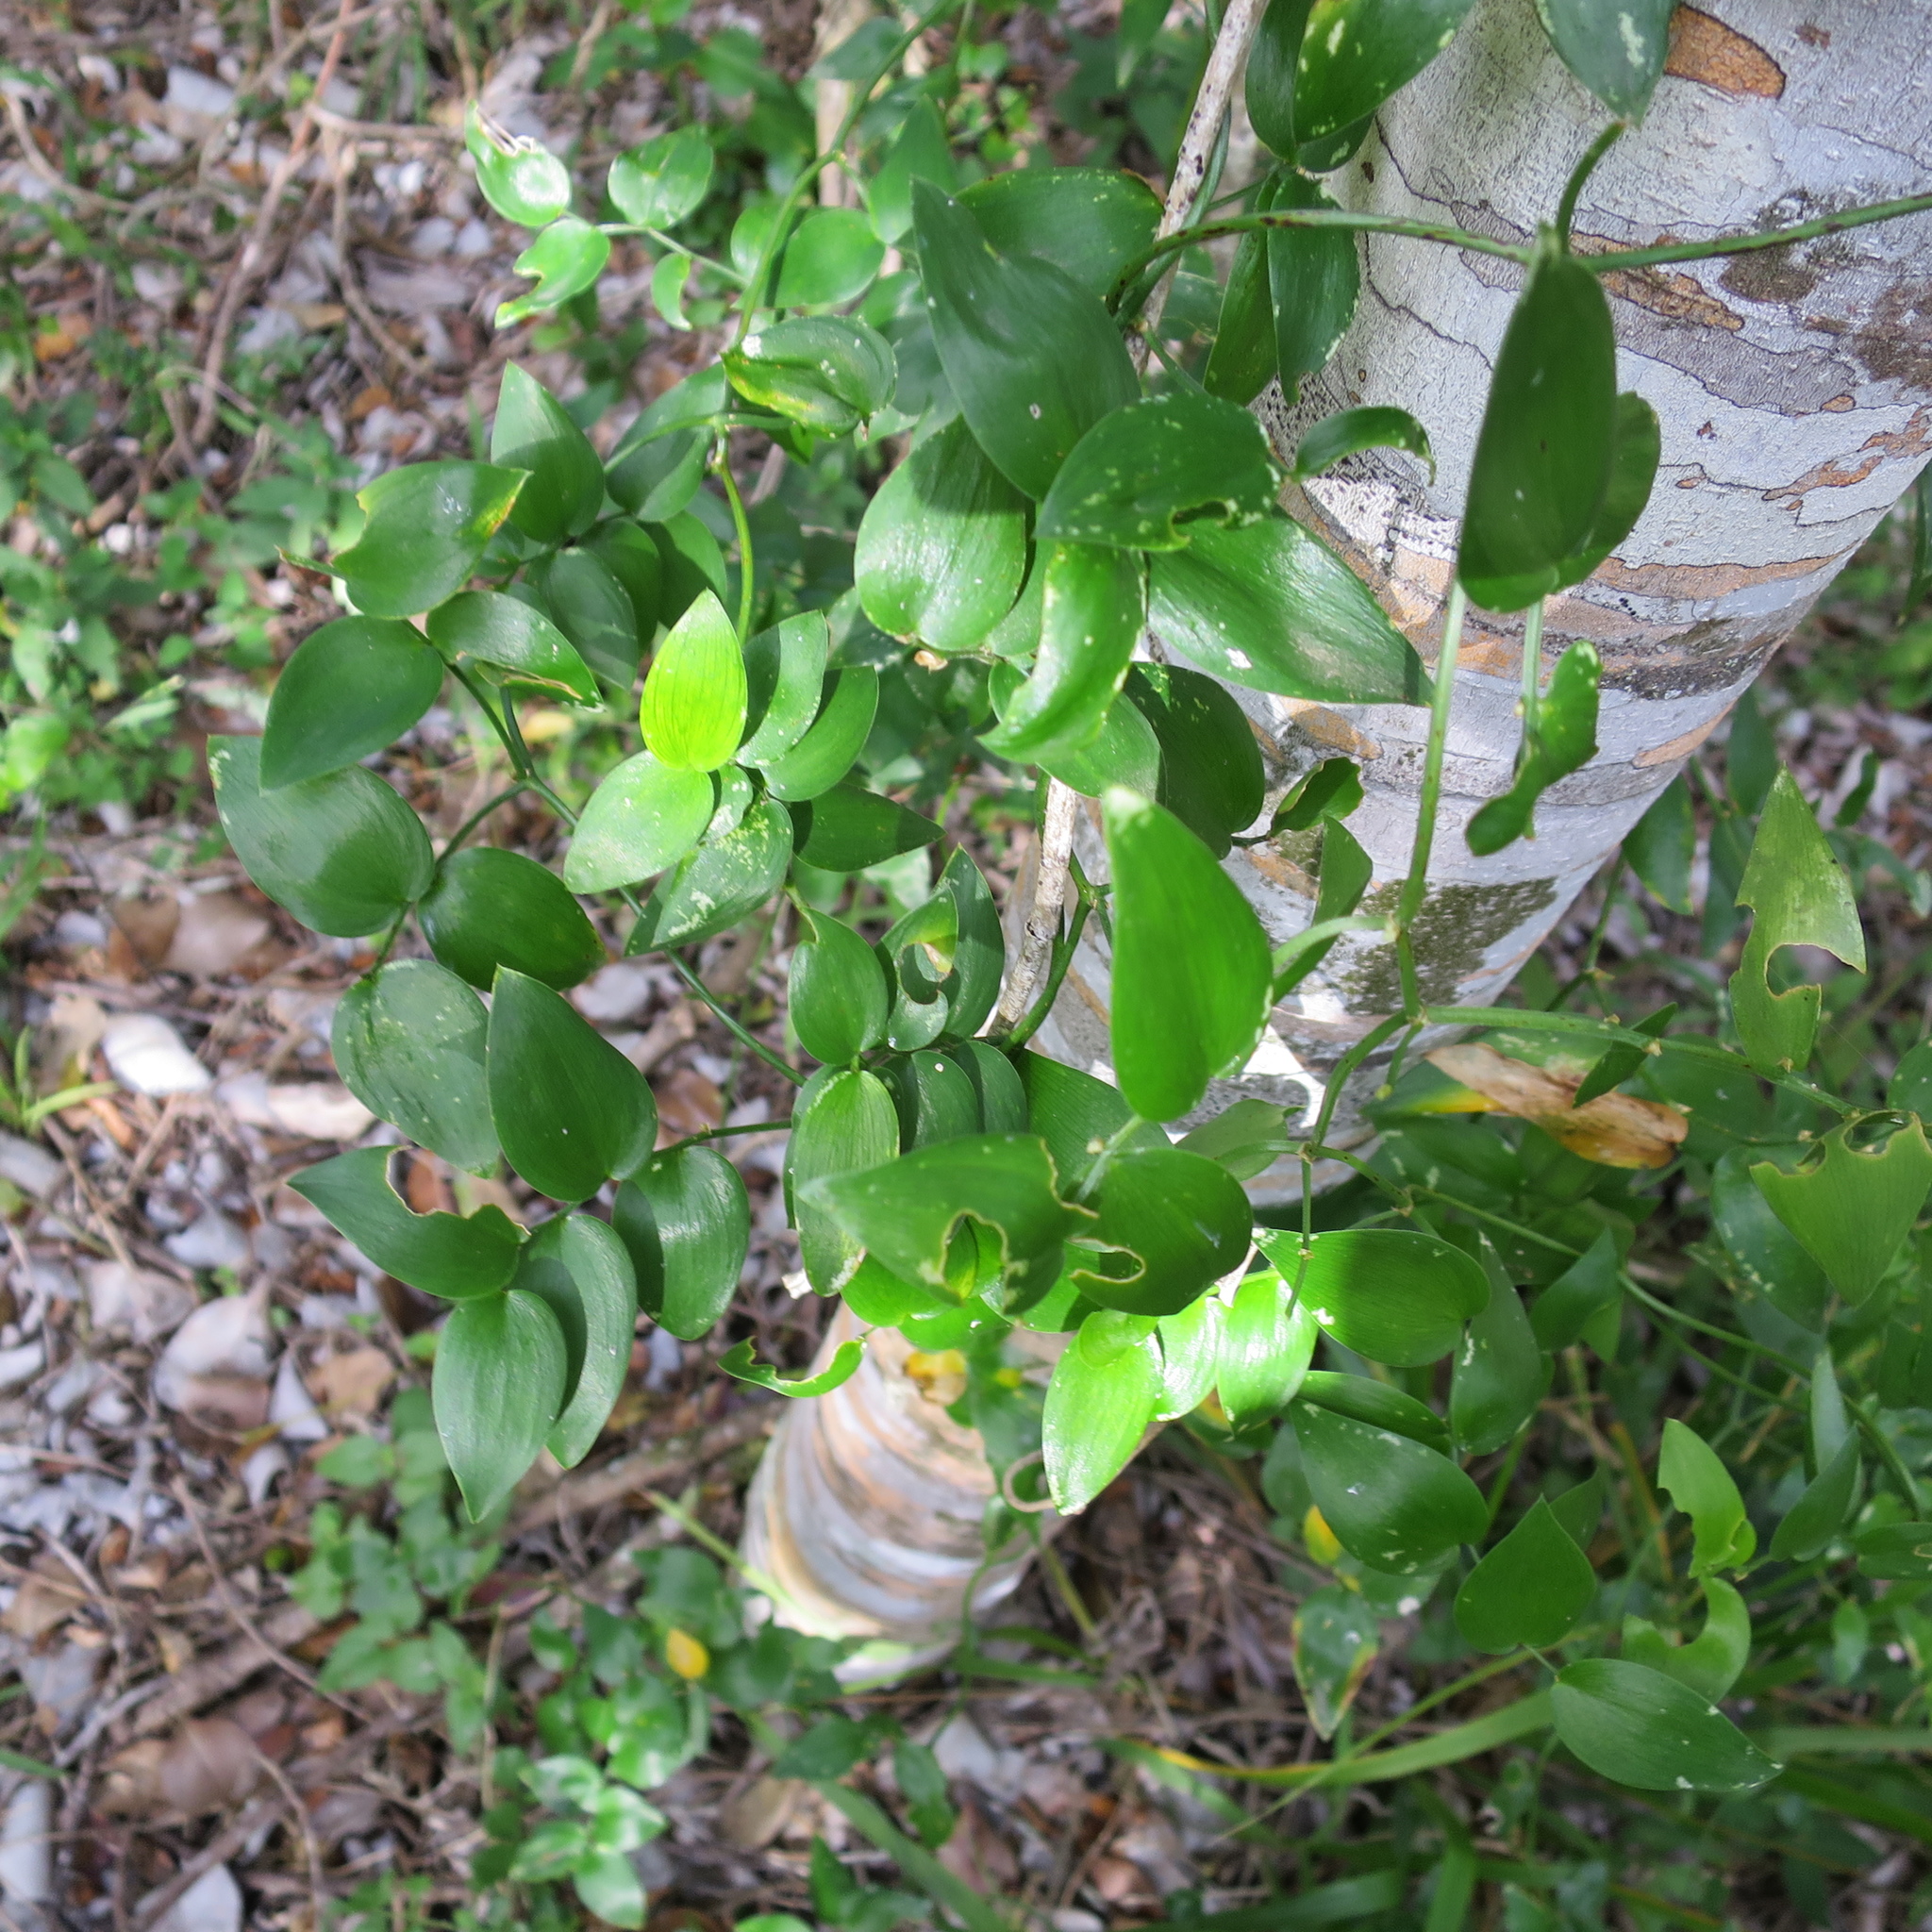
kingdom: Plantae
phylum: Tracheophyta
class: Liliopsida
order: Asparagales
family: Asparagaceae
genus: Asparagus
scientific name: Asparagus asparagoides
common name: African asparagus fern
